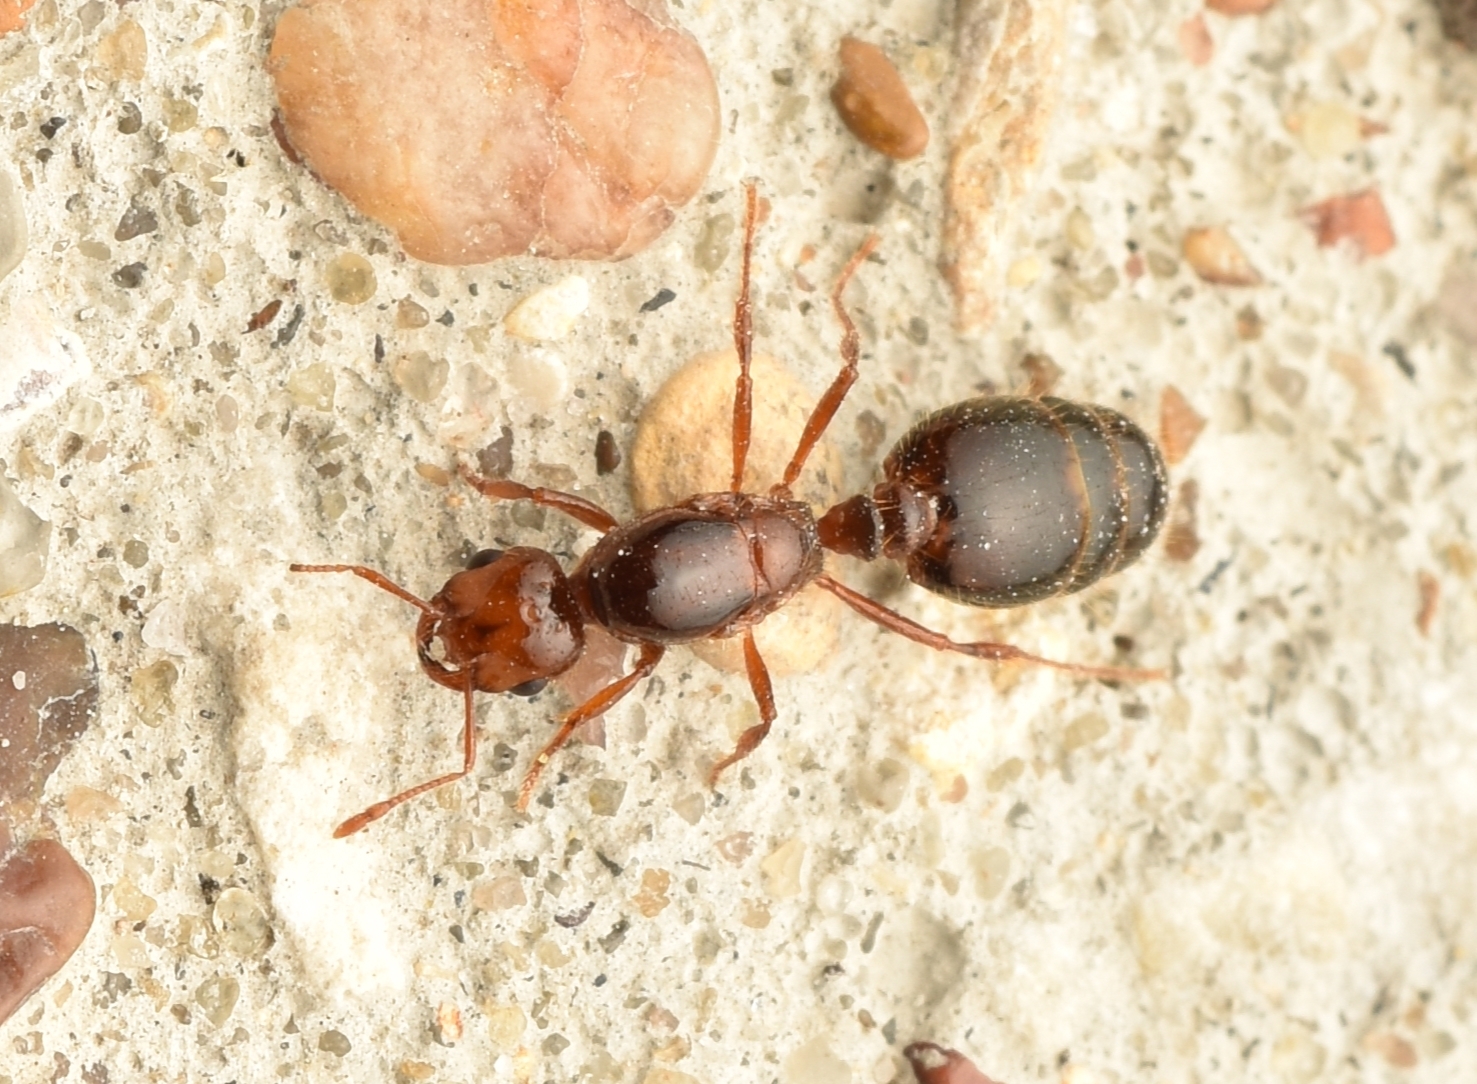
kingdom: Animalia
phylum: Arthropoda
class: Insecta
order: Hymenoptera
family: Formicidae
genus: Solenopsis
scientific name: Solenopsis invicta
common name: Red imported fire ant
